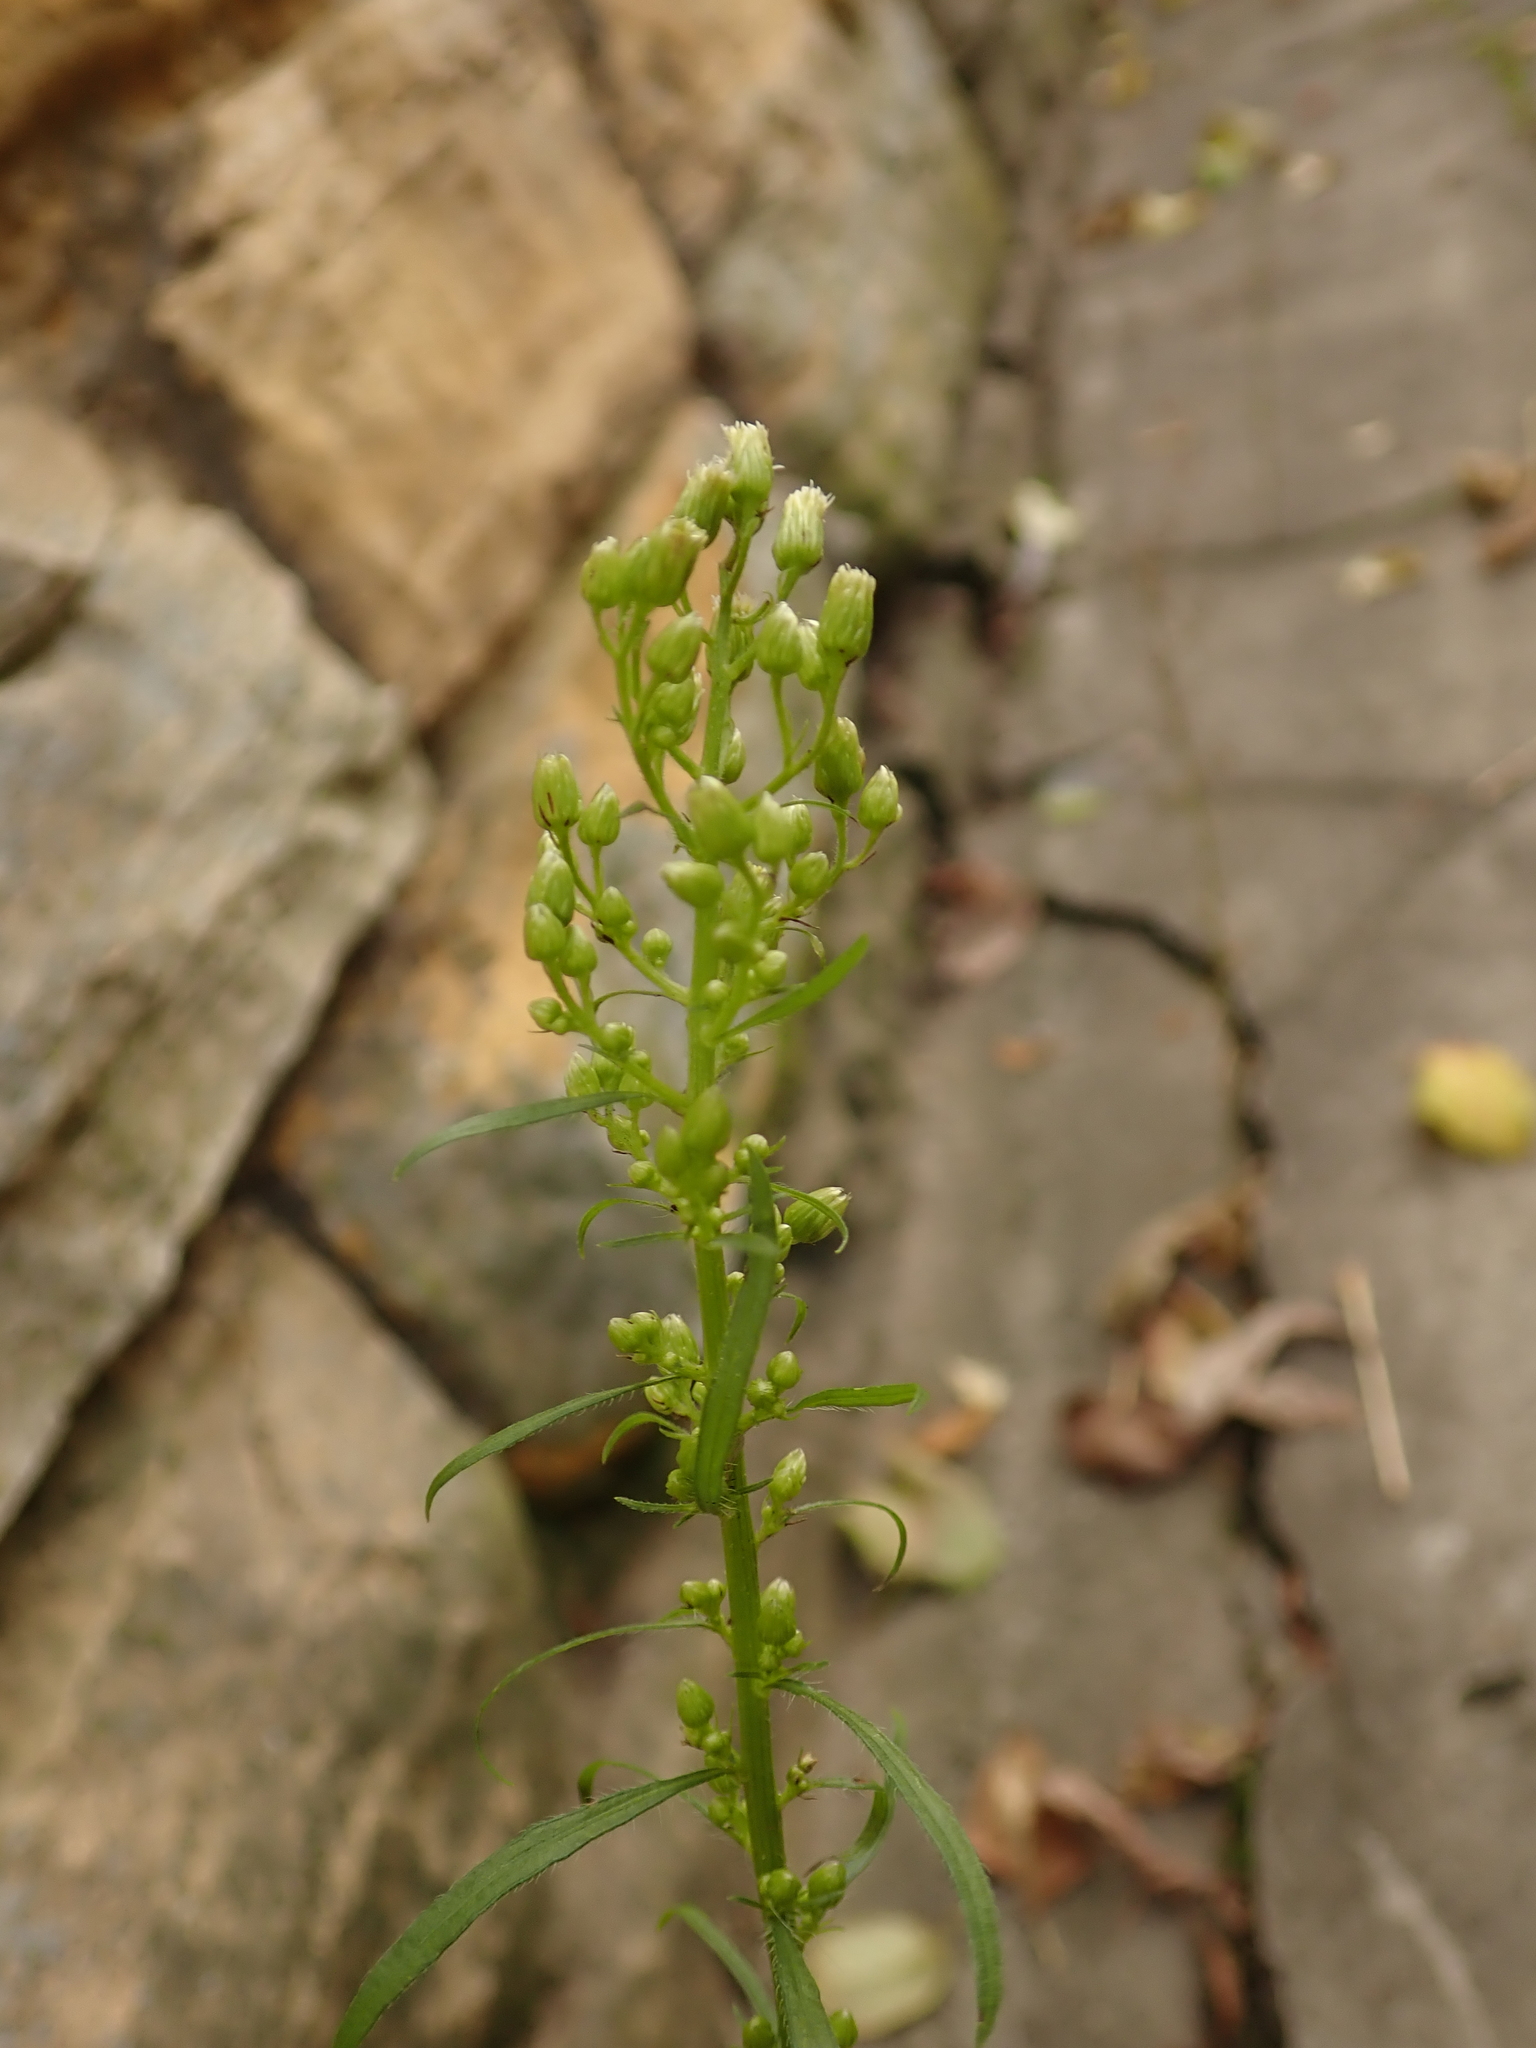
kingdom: Plantae
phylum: Tracheophyta
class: Magnoliopsida
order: Asterales
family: Asteraceae
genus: Erigeron
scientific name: Erigeron canadensis
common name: Canadian fleabane
